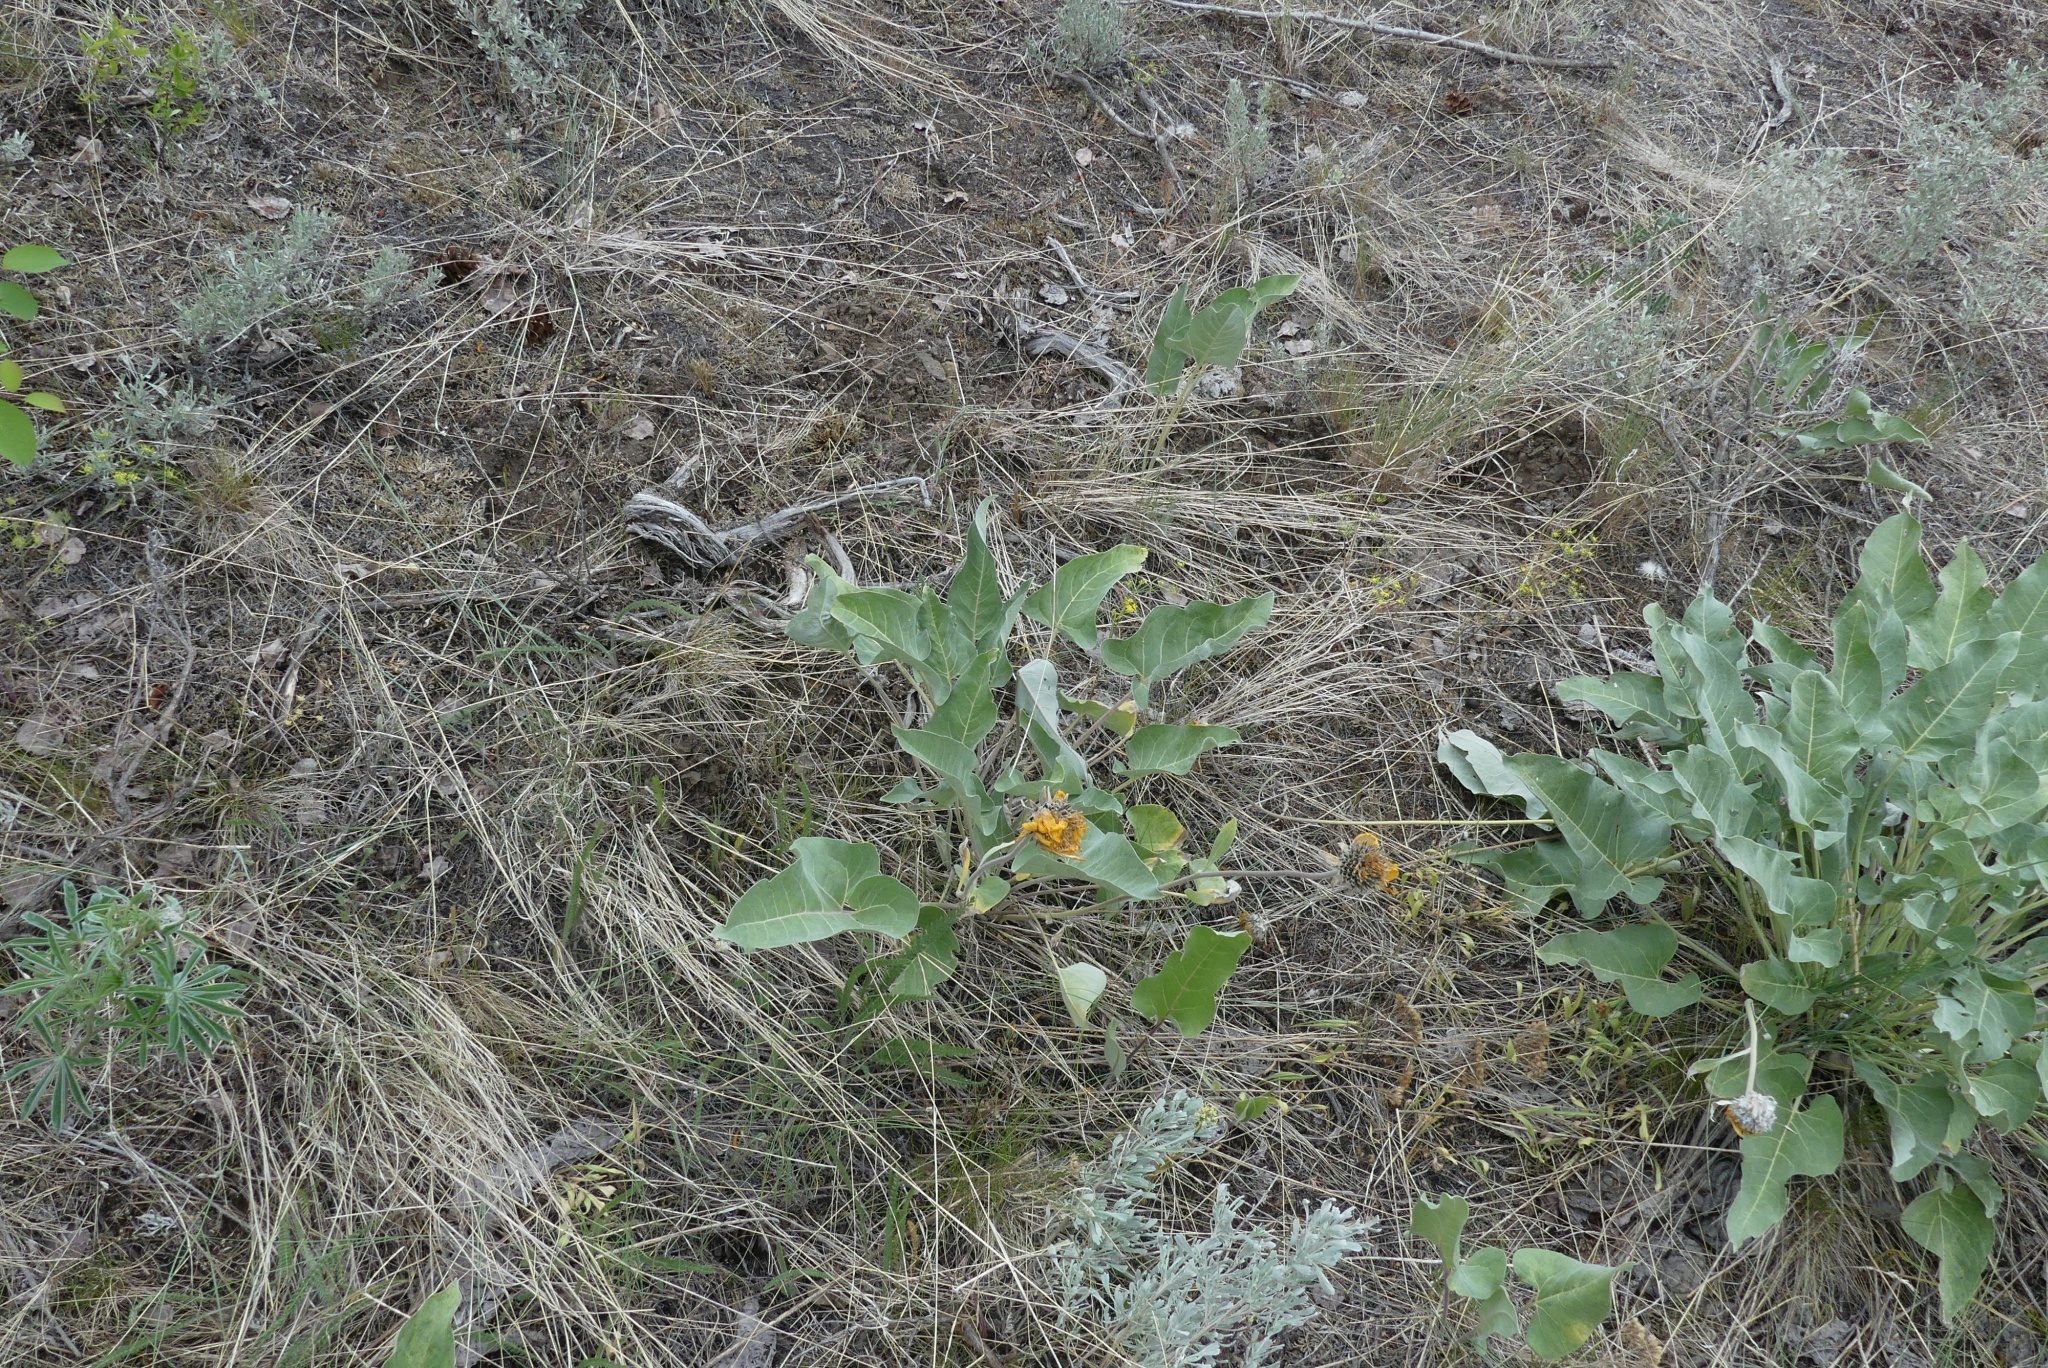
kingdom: Plantae
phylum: Tracheophyta
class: Magnoliopsida
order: Asterales
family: Asteraceae
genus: Wyethia
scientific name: Wyethia sagittata
